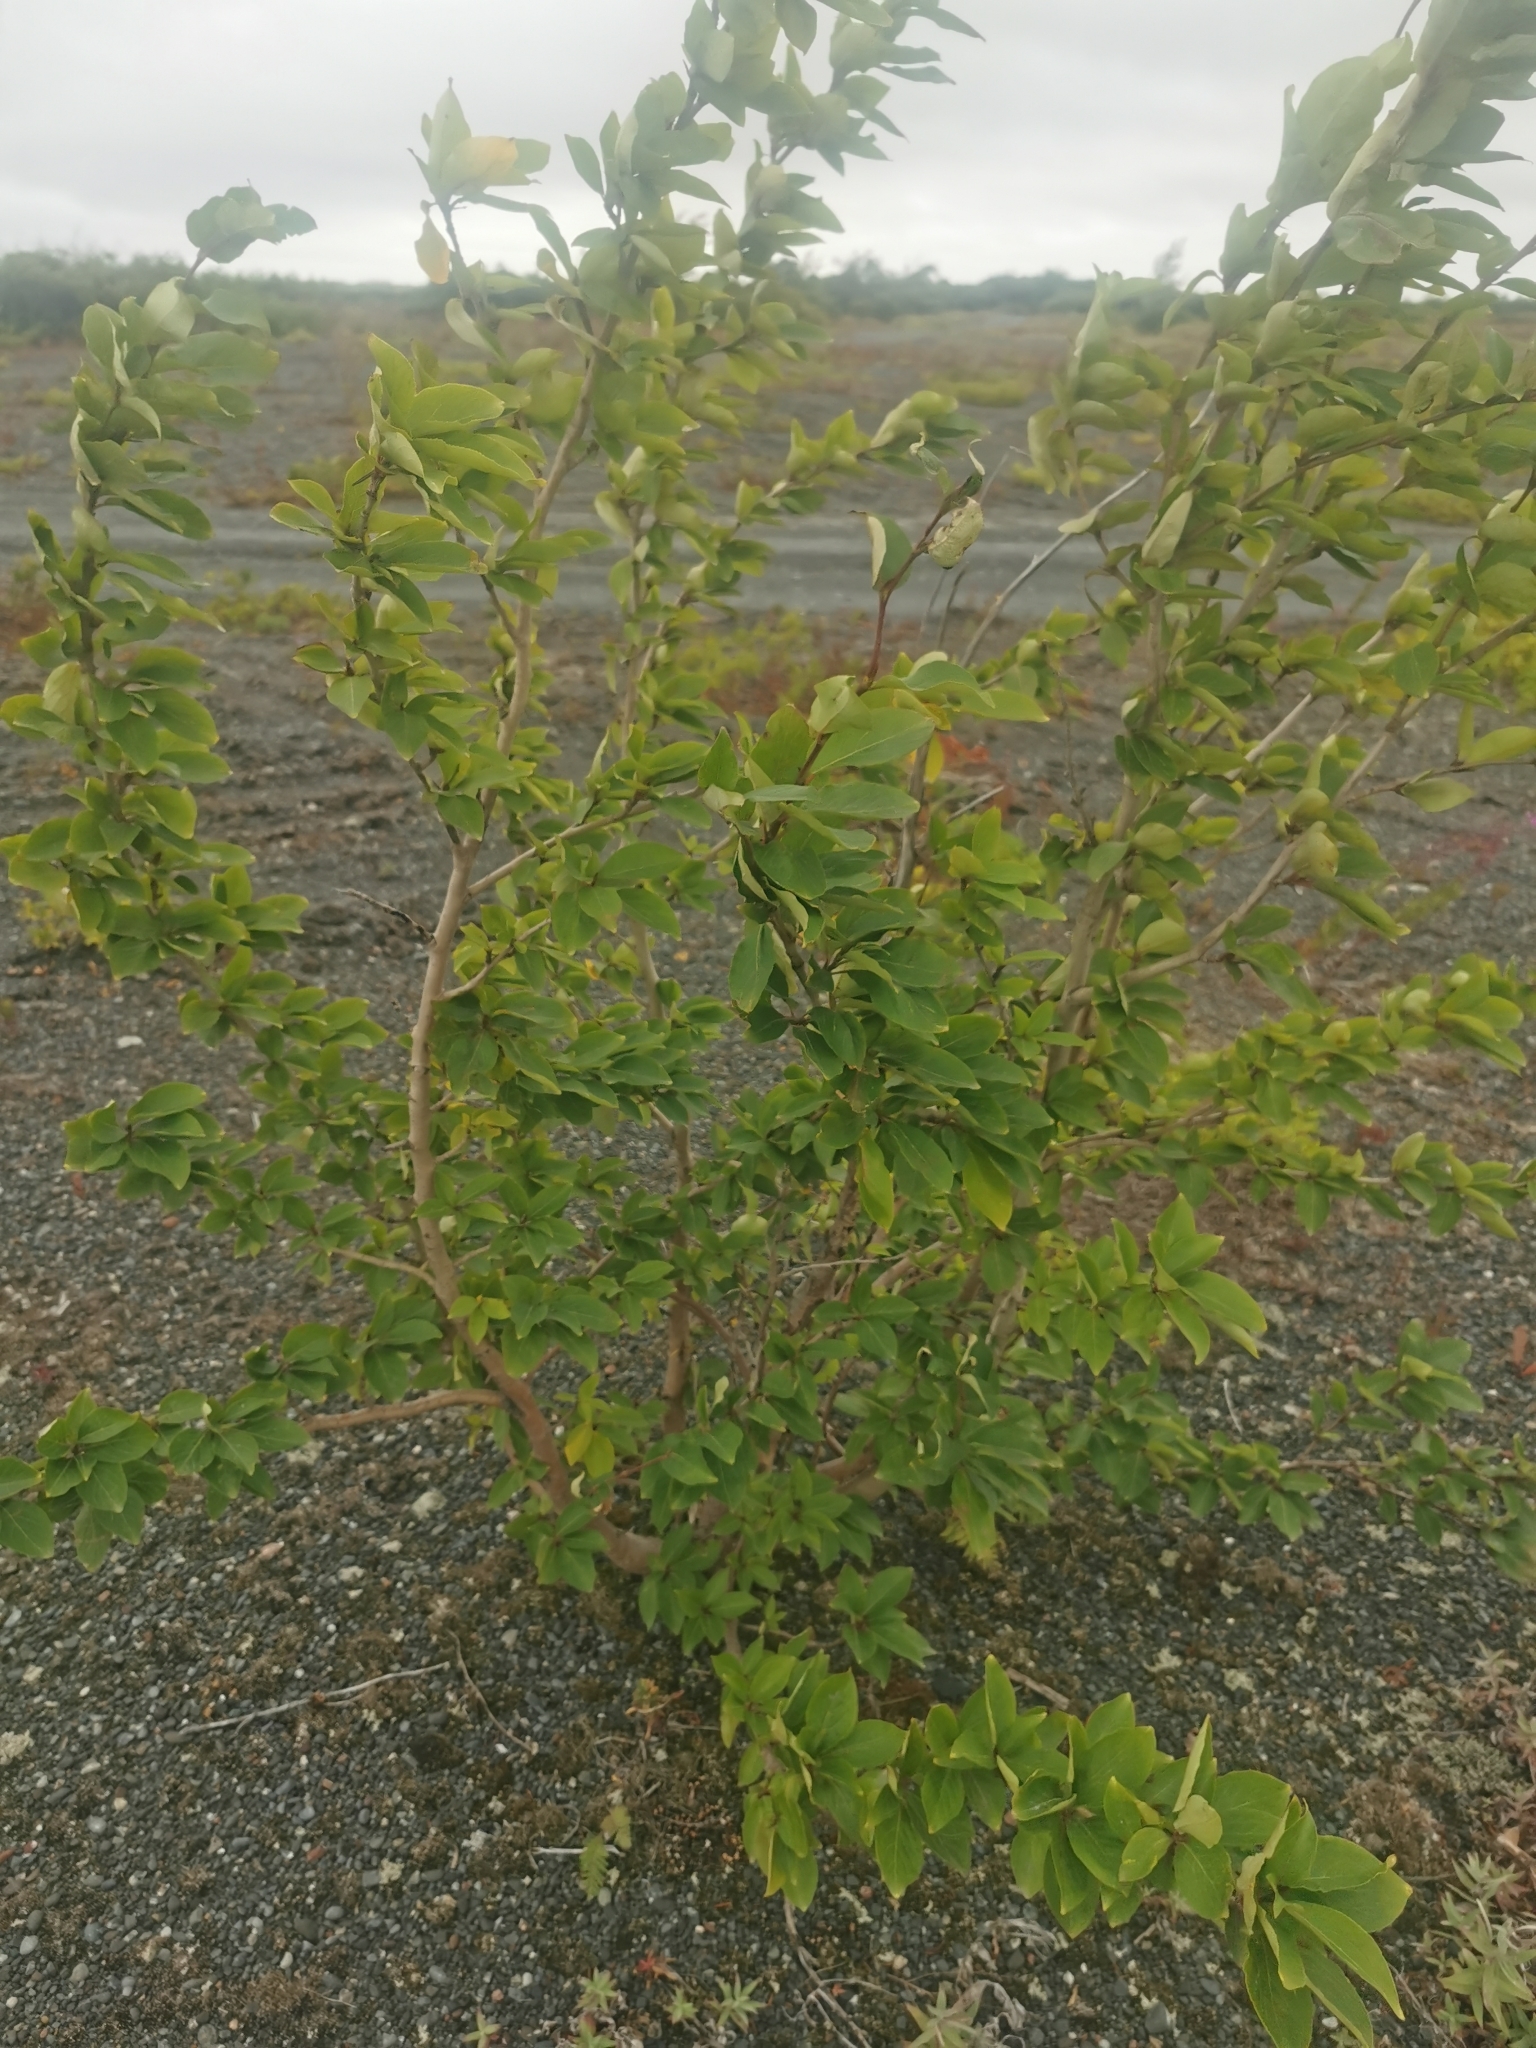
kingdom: Plantae
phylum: Tracheophyta
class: Magnoliopsida
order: Malpighiales
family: Salicaceae
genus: Populus
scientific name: Populus suaveolens
